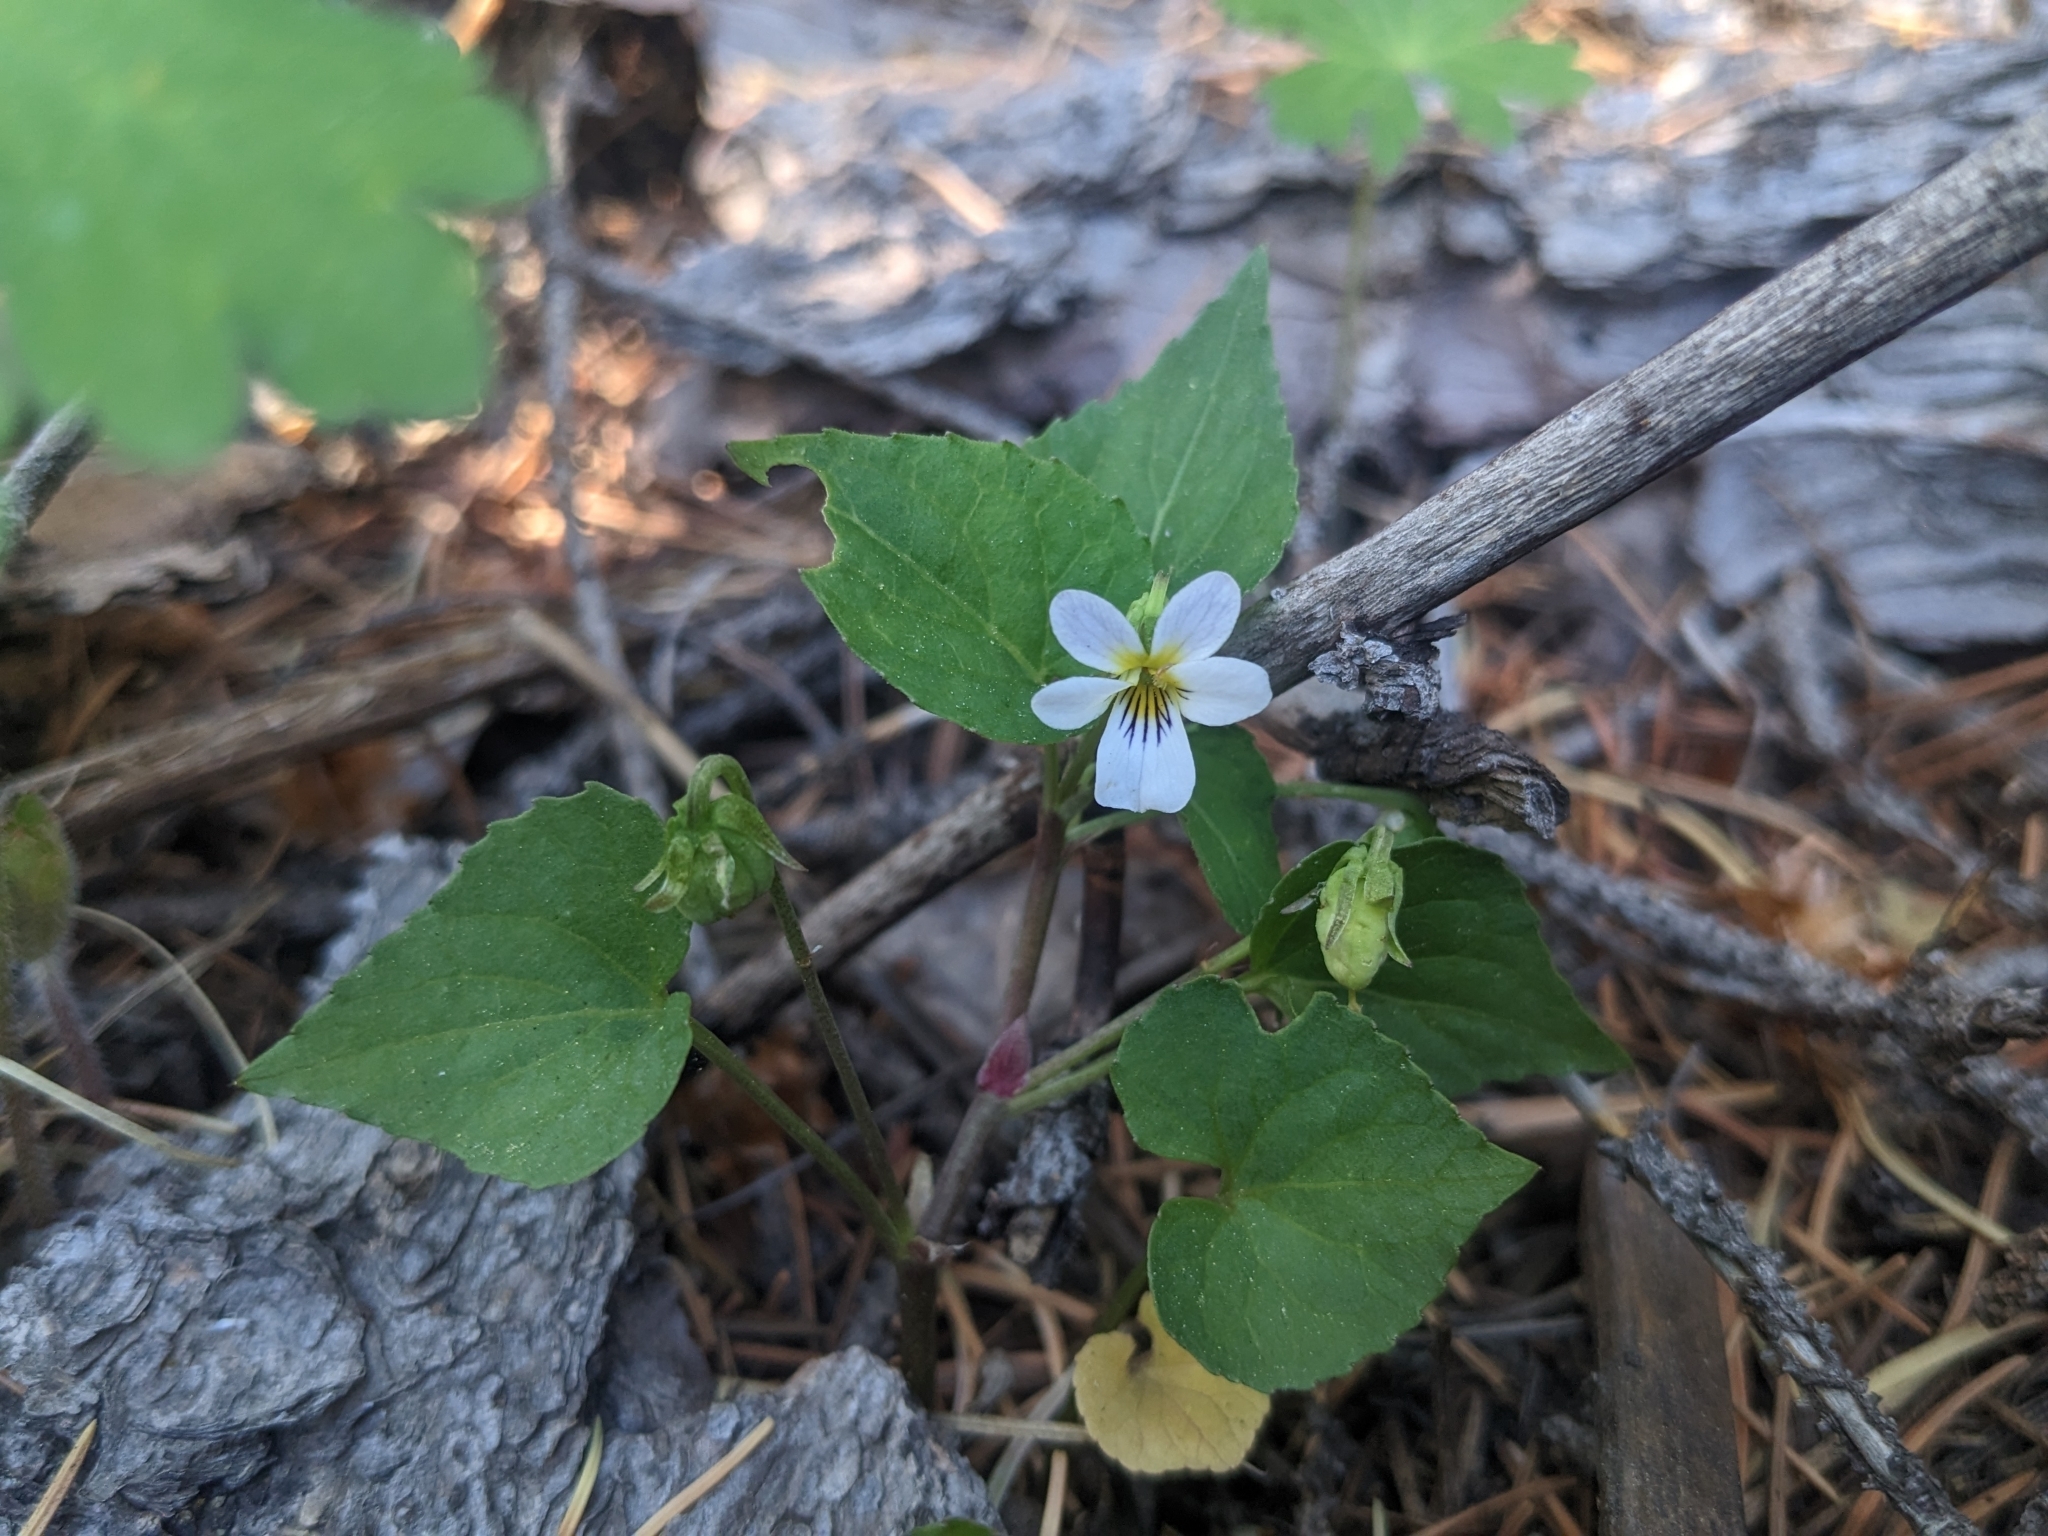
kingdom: Plantae
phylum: Tracheophyta
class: Magnoliopsida
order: Malpighiales
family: Violaceae
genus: Viola
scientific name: Viola canadensis
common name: Canada violet
